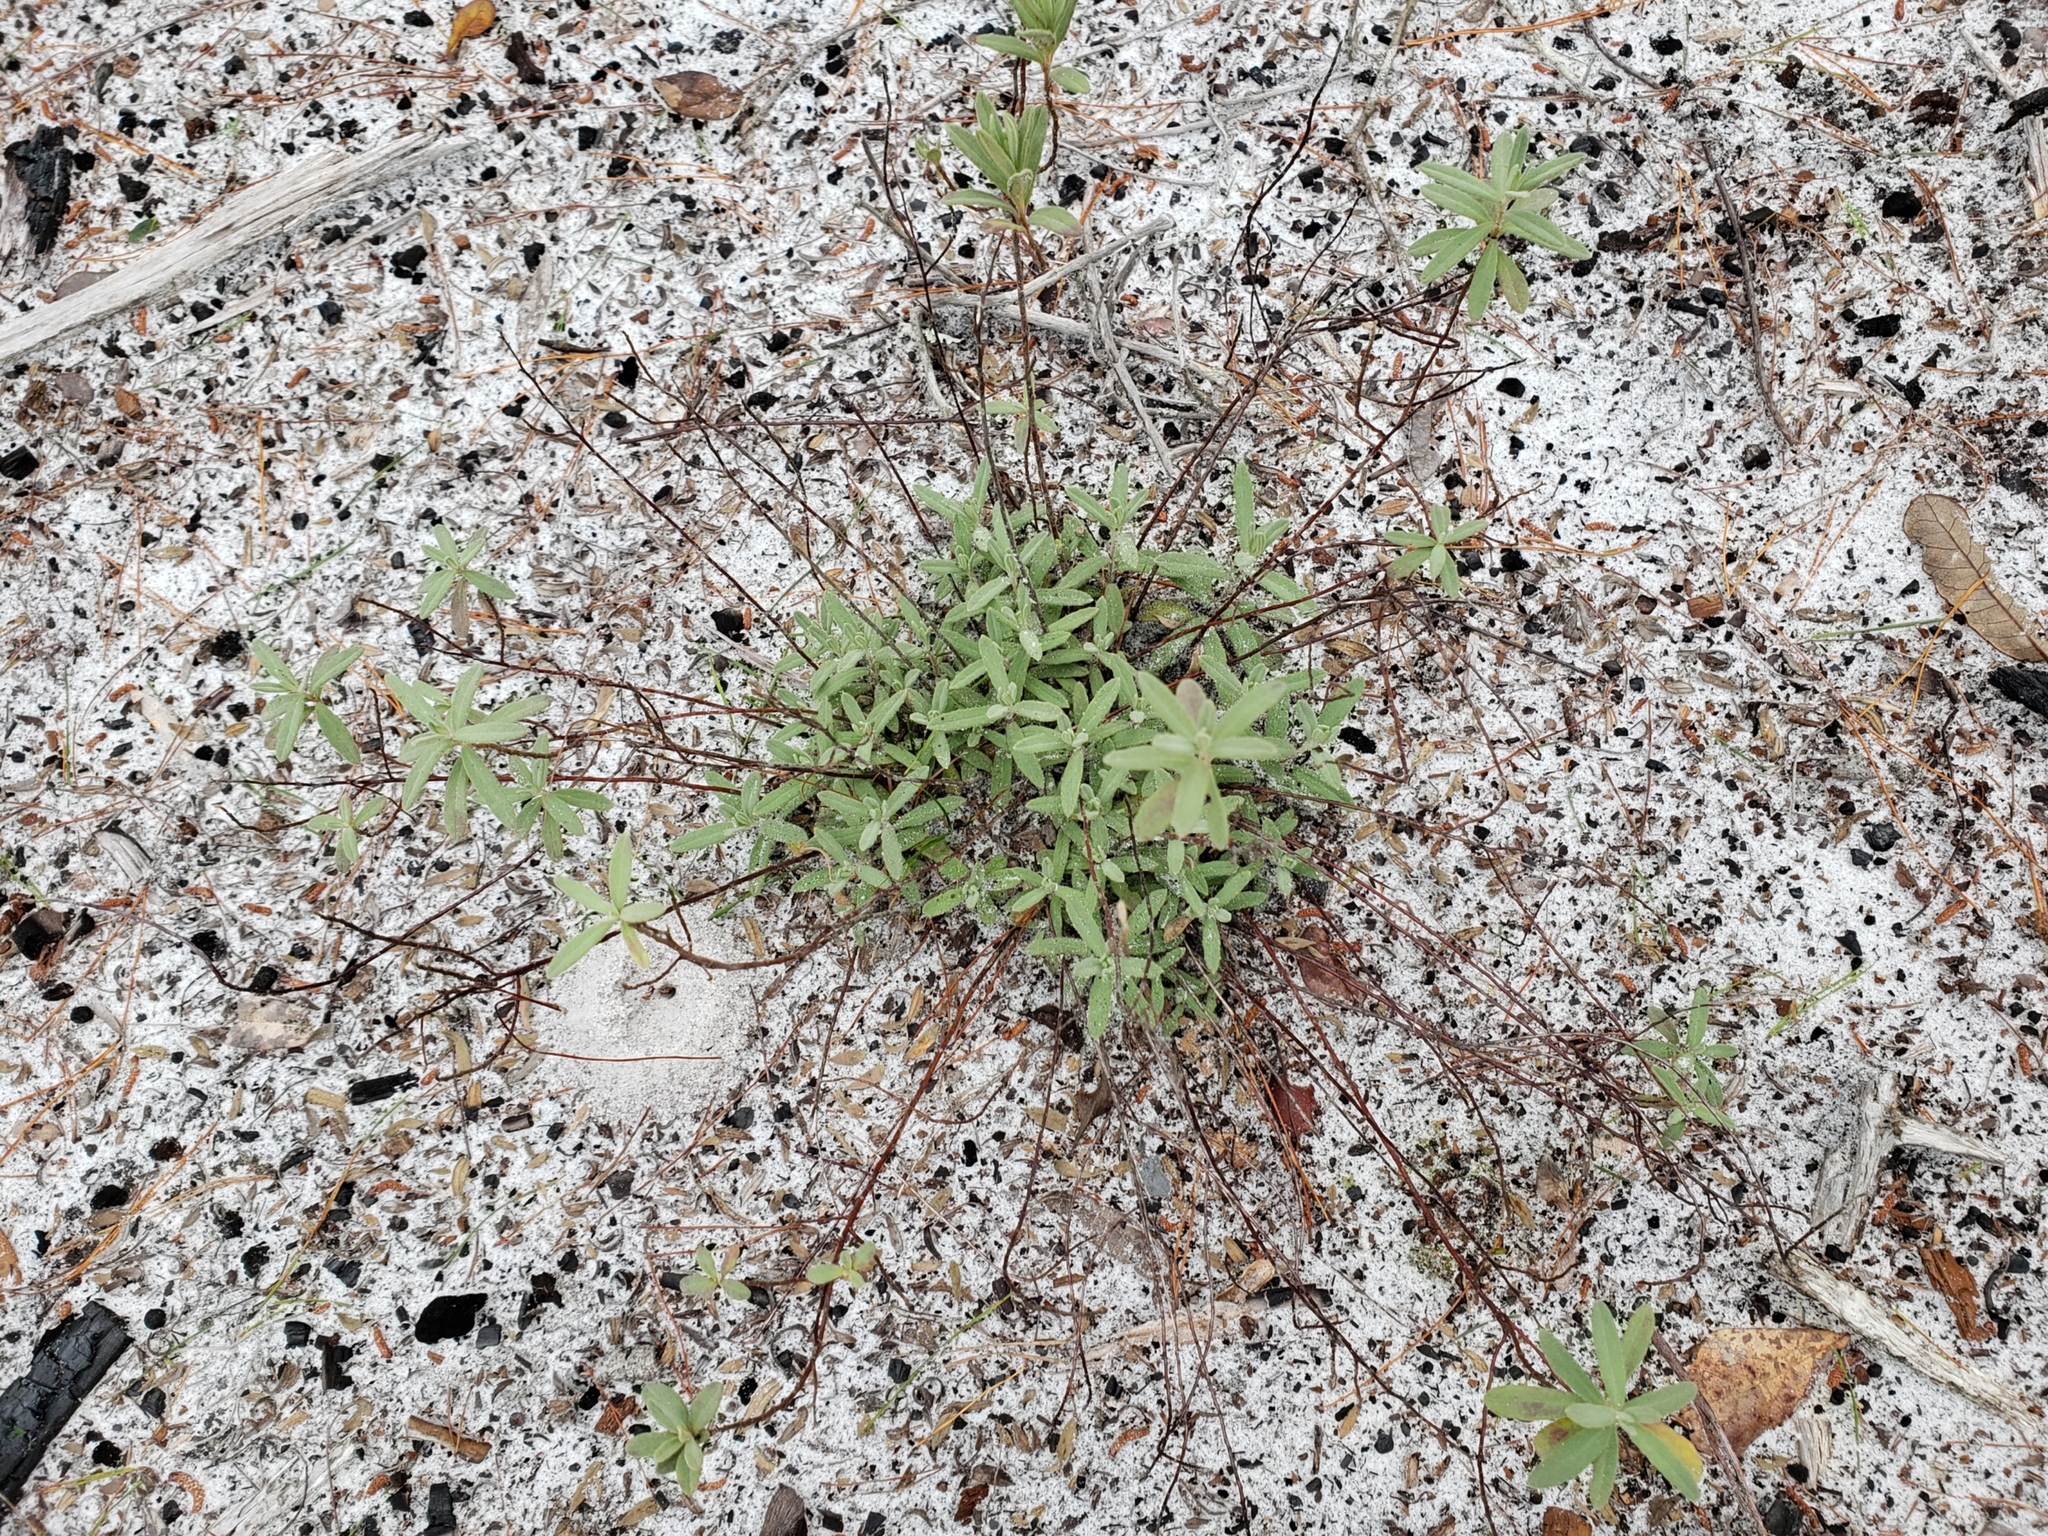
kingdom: Plantae
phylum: Tracheophyta
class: Magnoliopsida
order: Malvales
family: Cistaceae
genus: Crocanthemum
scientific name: Crocanthemum nashii
